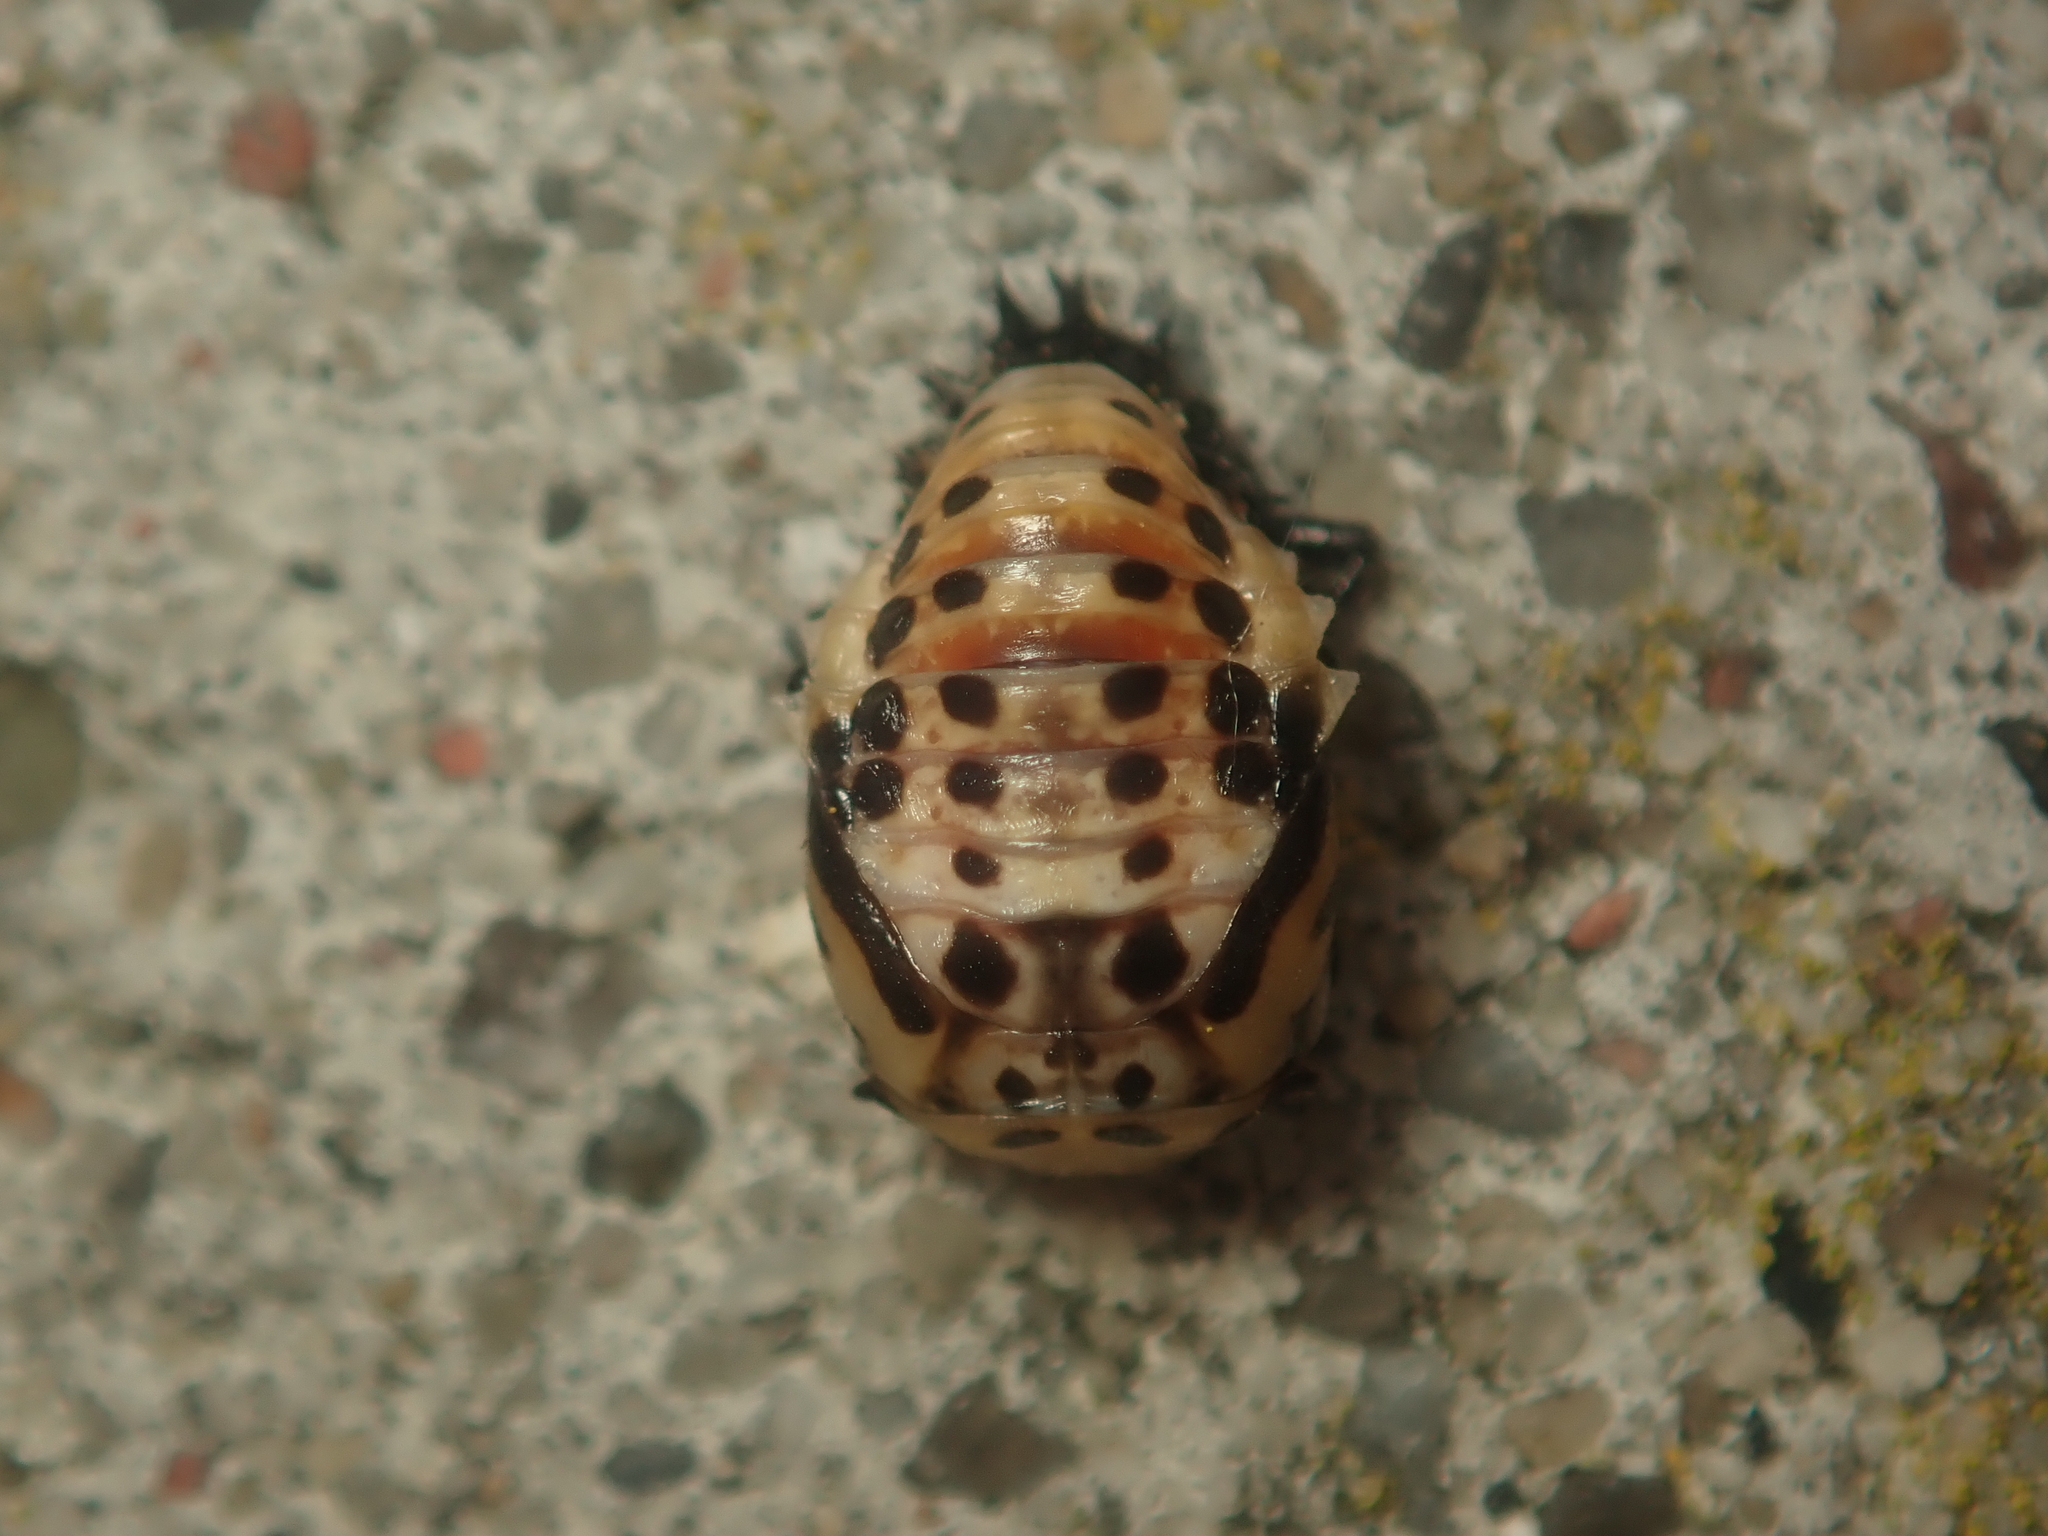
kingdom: Animalia
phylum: Arthropoda
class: Insecta
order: Coleoptera
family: Coccinellidae
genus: Harmonia
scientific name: Harmonia quadripunctata
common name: Cream-streaked ladybird
